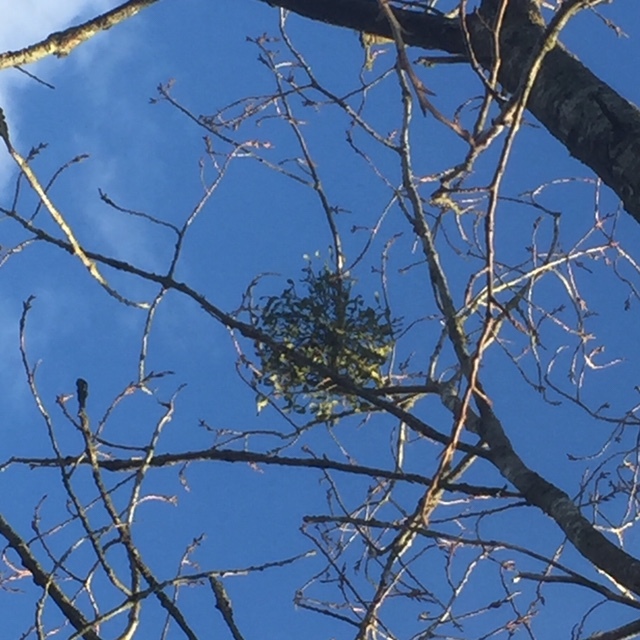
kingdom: Plantae
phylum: Tracheophyta
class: Magnoliopsida
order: Santalales
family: Viscaceae
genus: Viscum
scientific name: Viscum album
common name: Mistletoe
